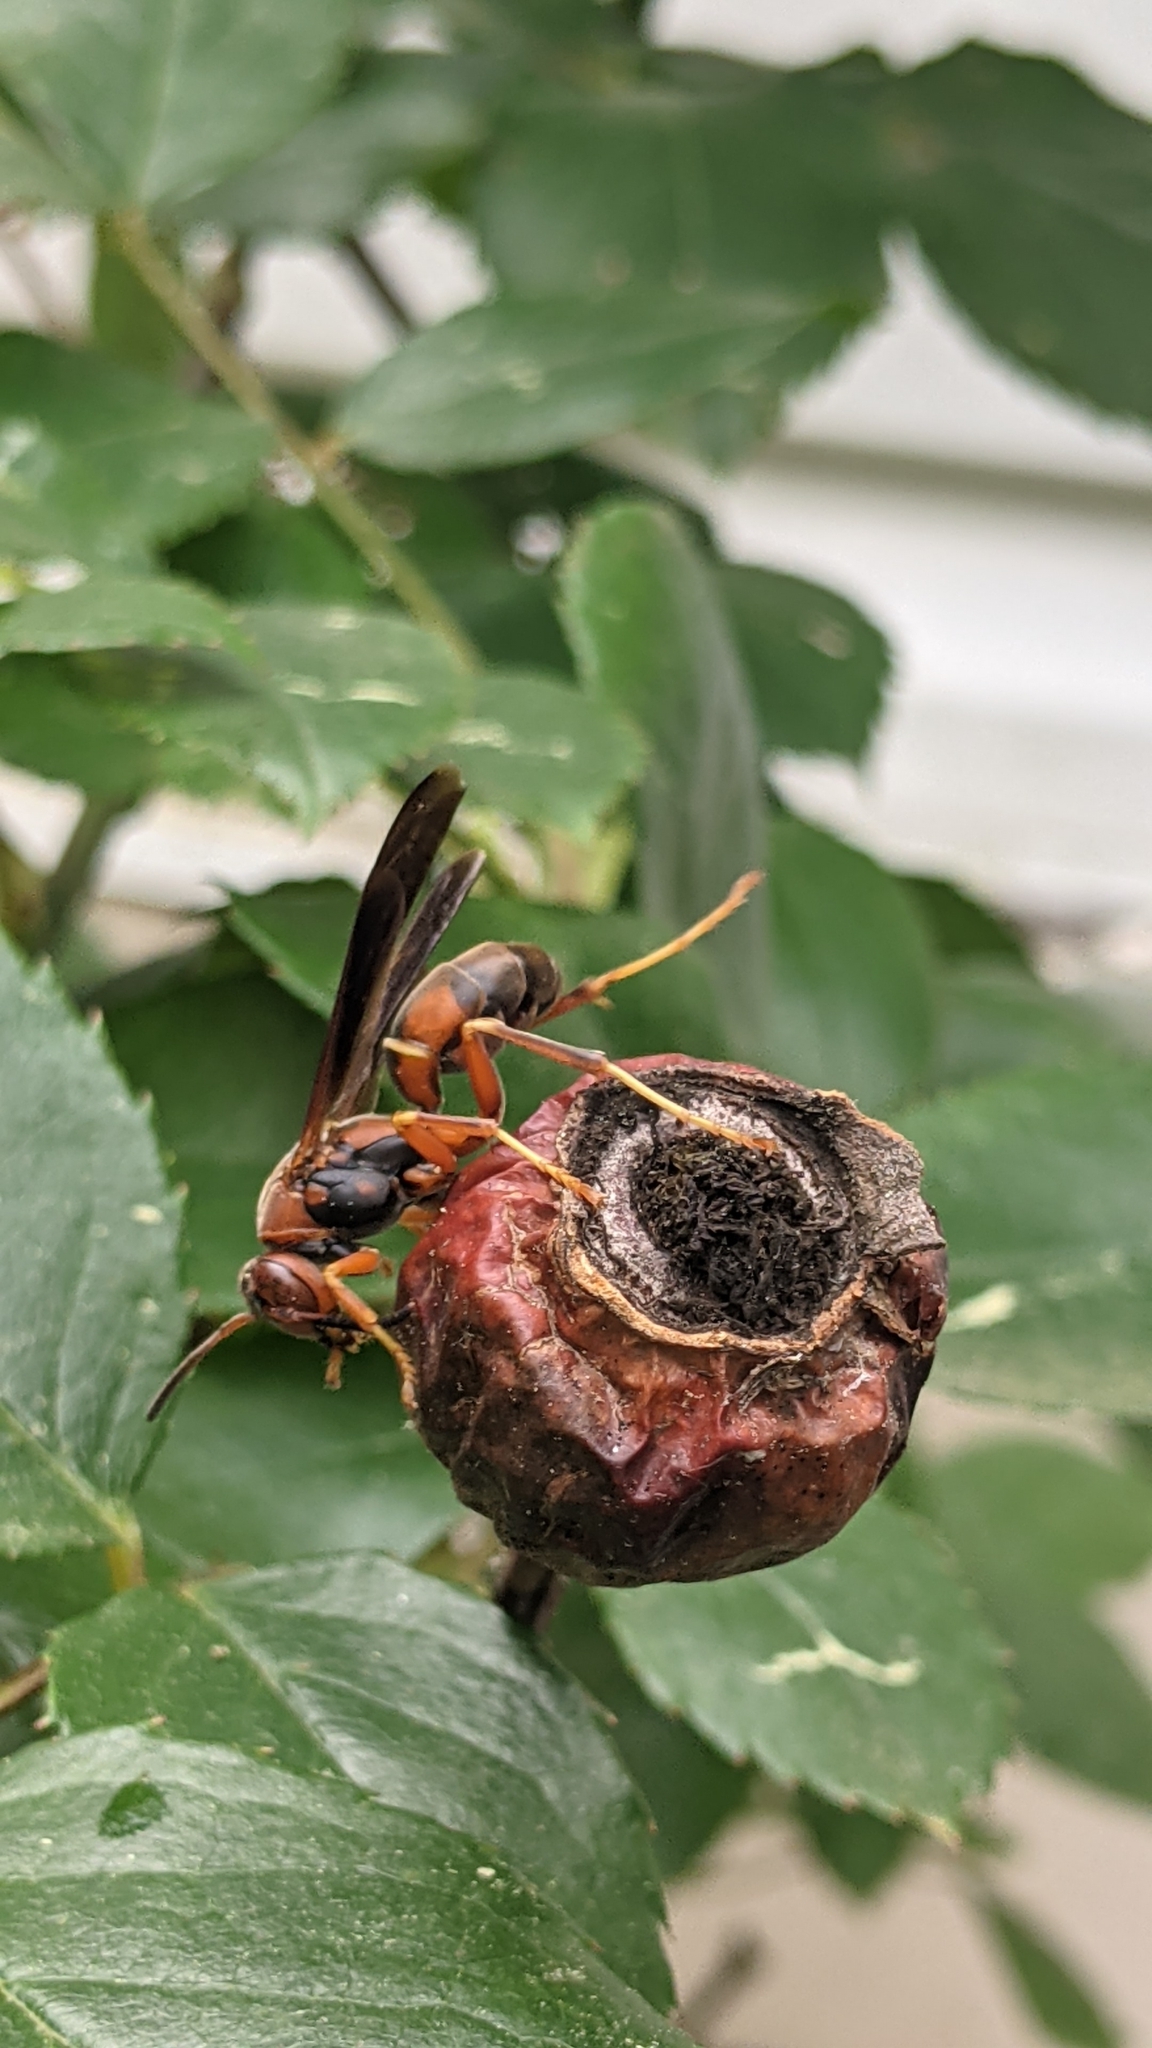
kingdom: Animalia
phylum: Arthropoda
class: Insecta
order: Hymenoptera
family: Eumenidae
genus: Polistes
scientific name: Polistes fuscatus
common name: Dark paper wasp
